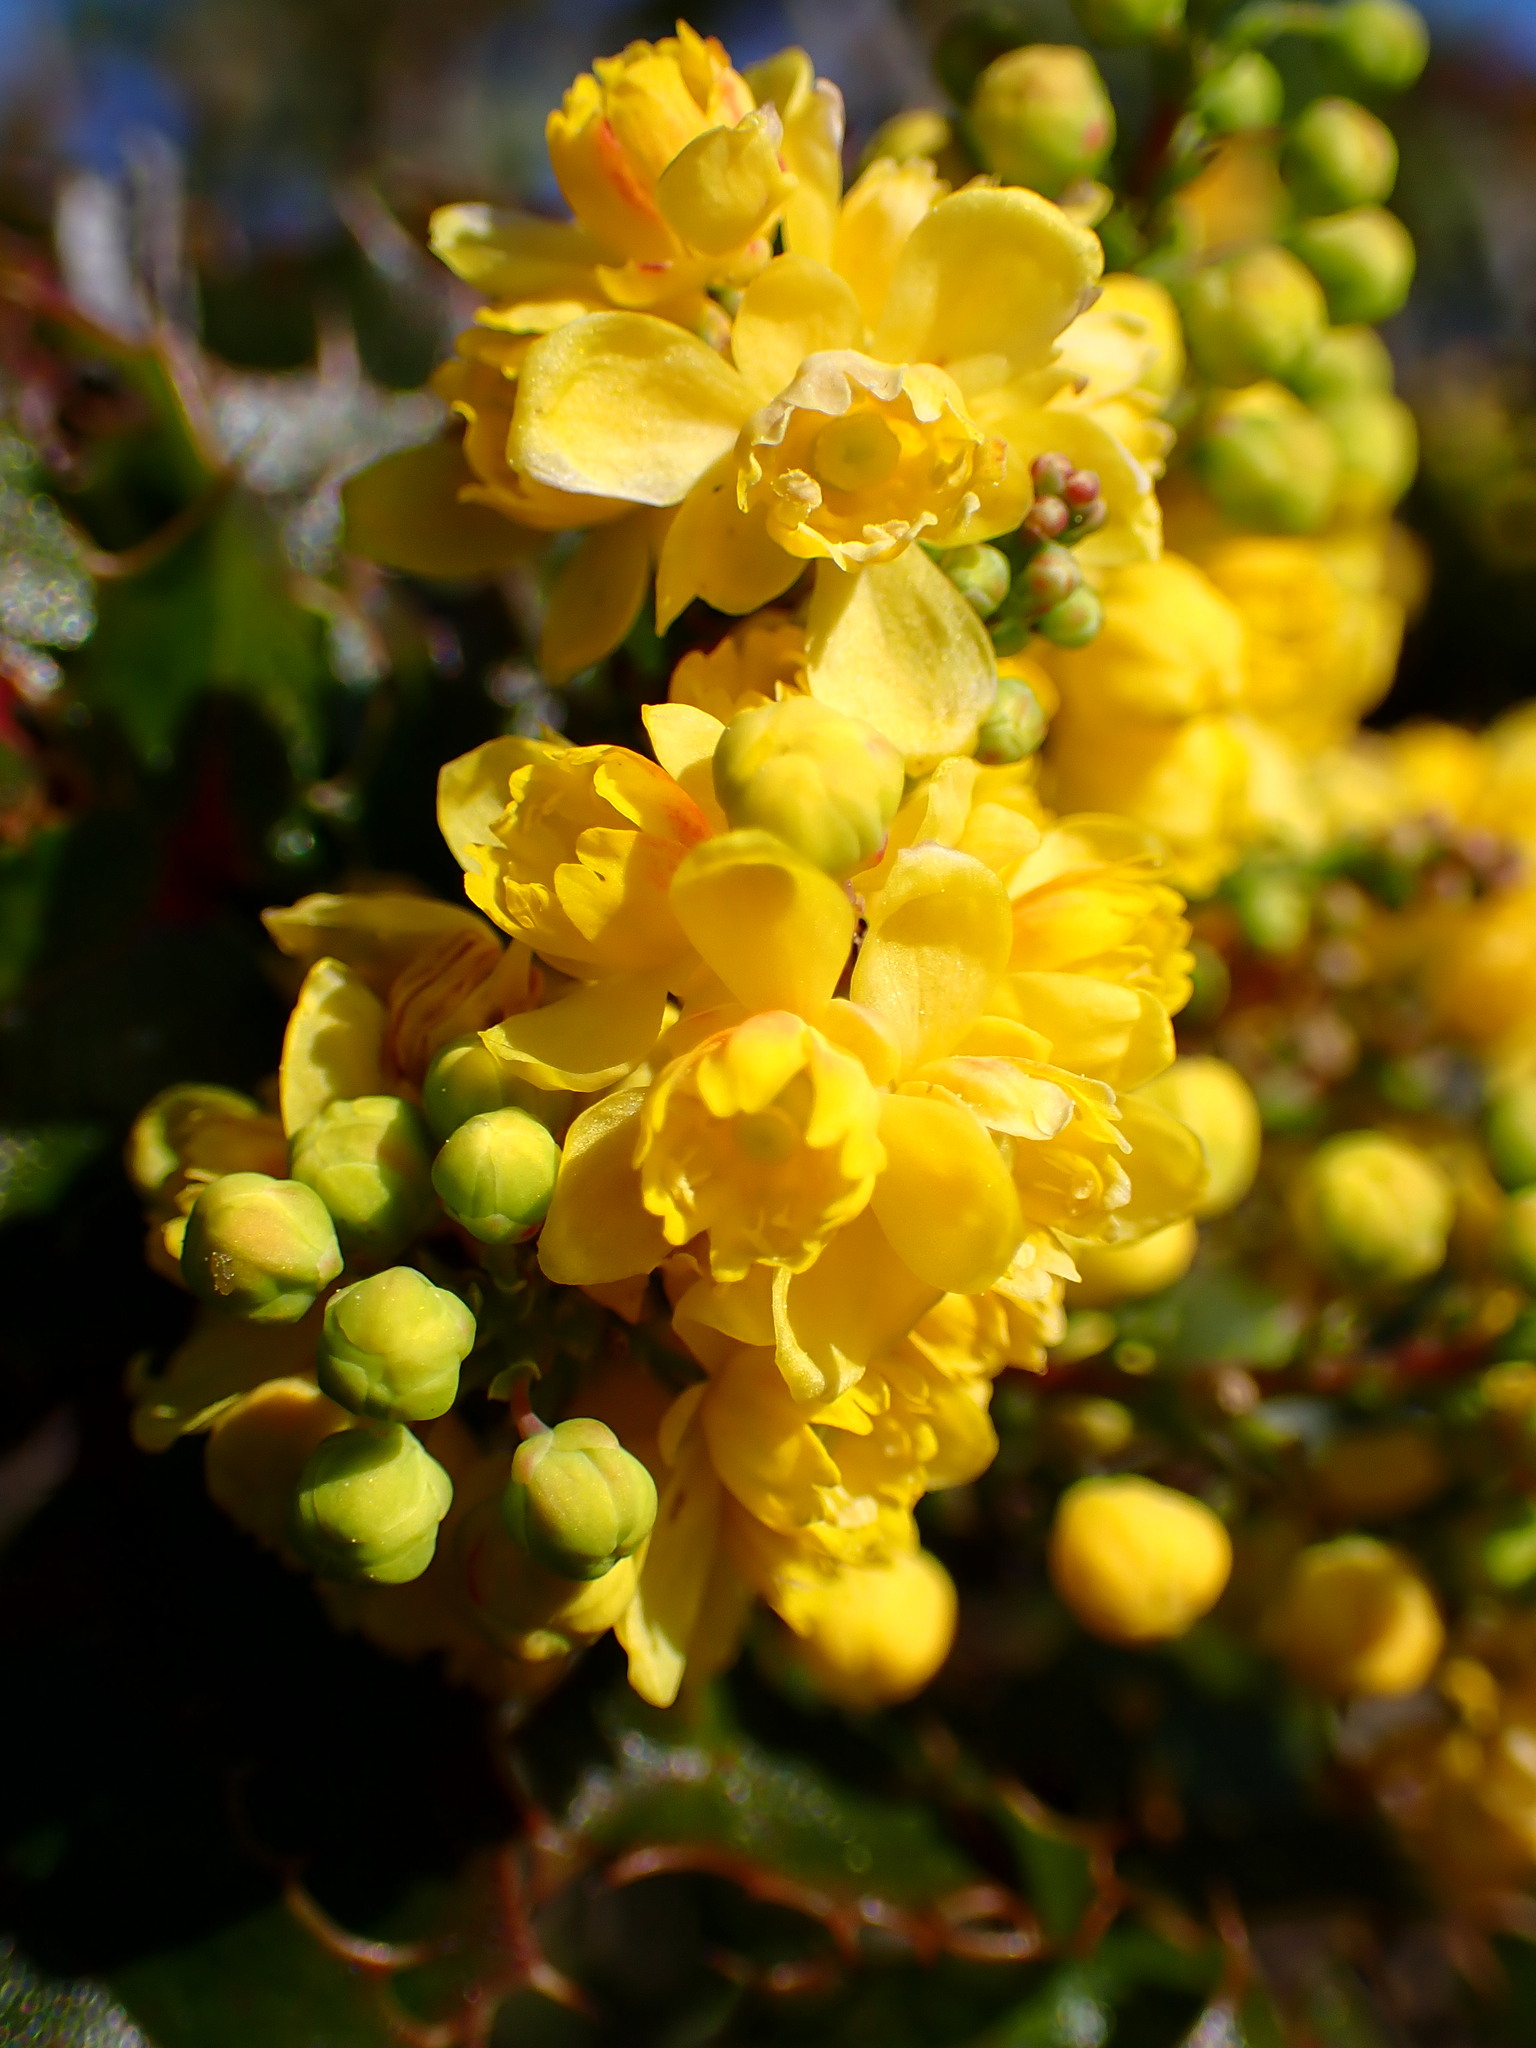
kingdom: Plantae
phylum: Tracheophyta
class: Magnoliopsida
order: Ranunculales
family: Berberidaceae
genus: Mahonia
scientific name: Mahonia
